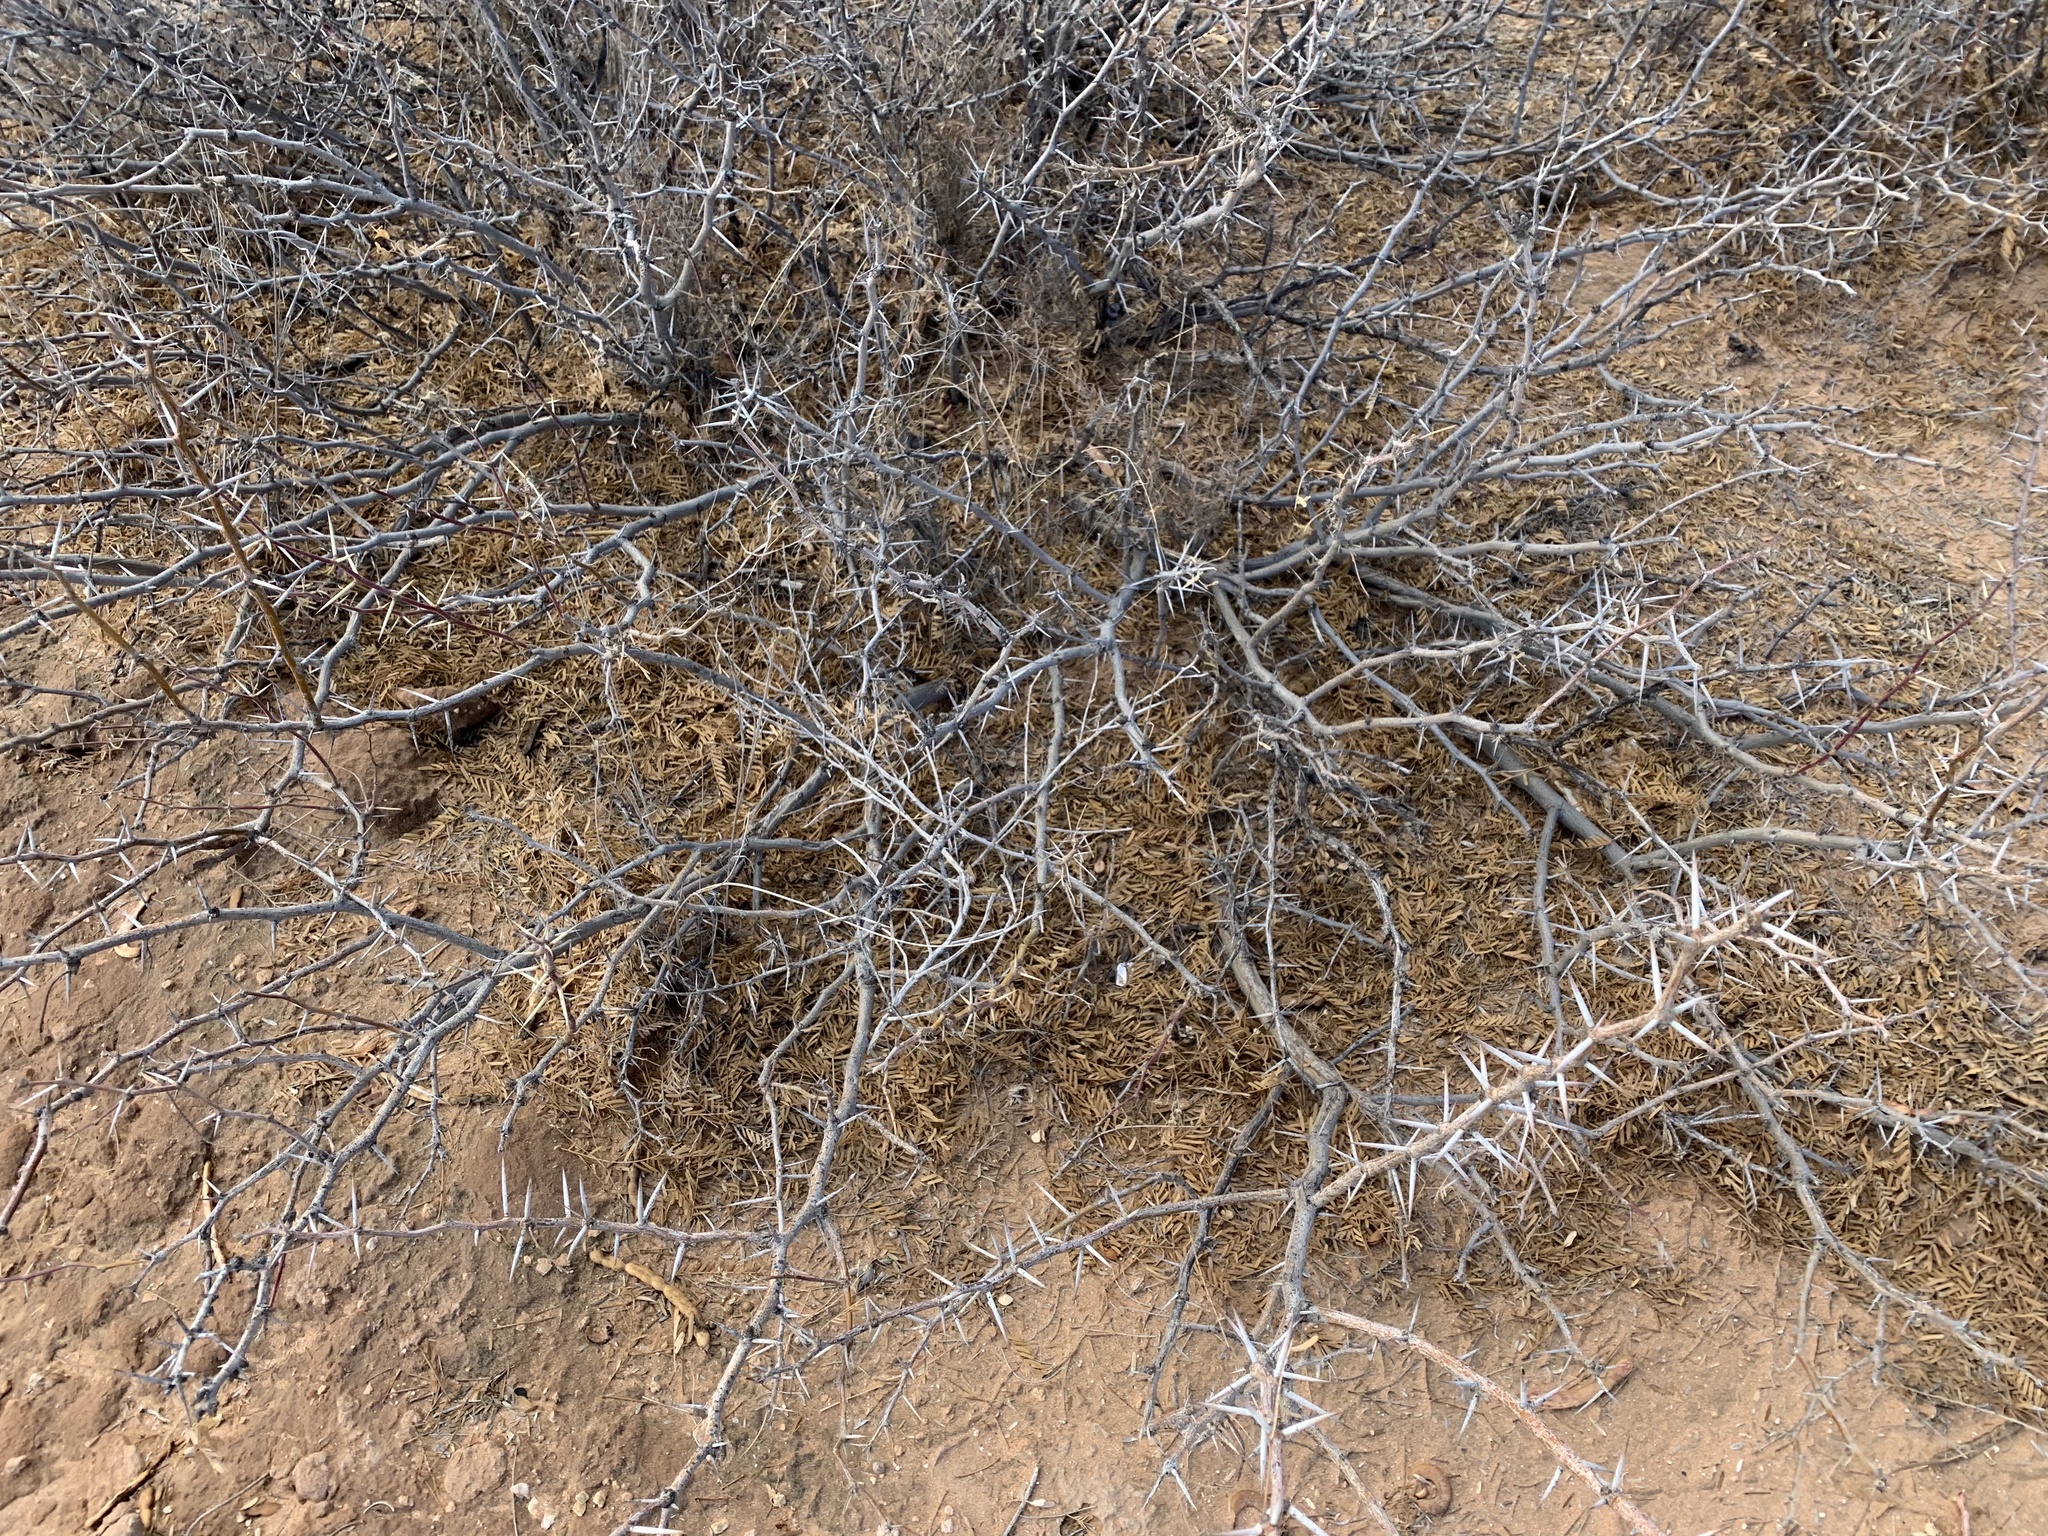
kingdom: Plantae
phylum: Tracheophyta
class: Magnoliopsida
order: Fabales
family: Fabaceae
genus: Prosopis
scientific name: Prosopis glandulosa
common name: Honey mesquite
